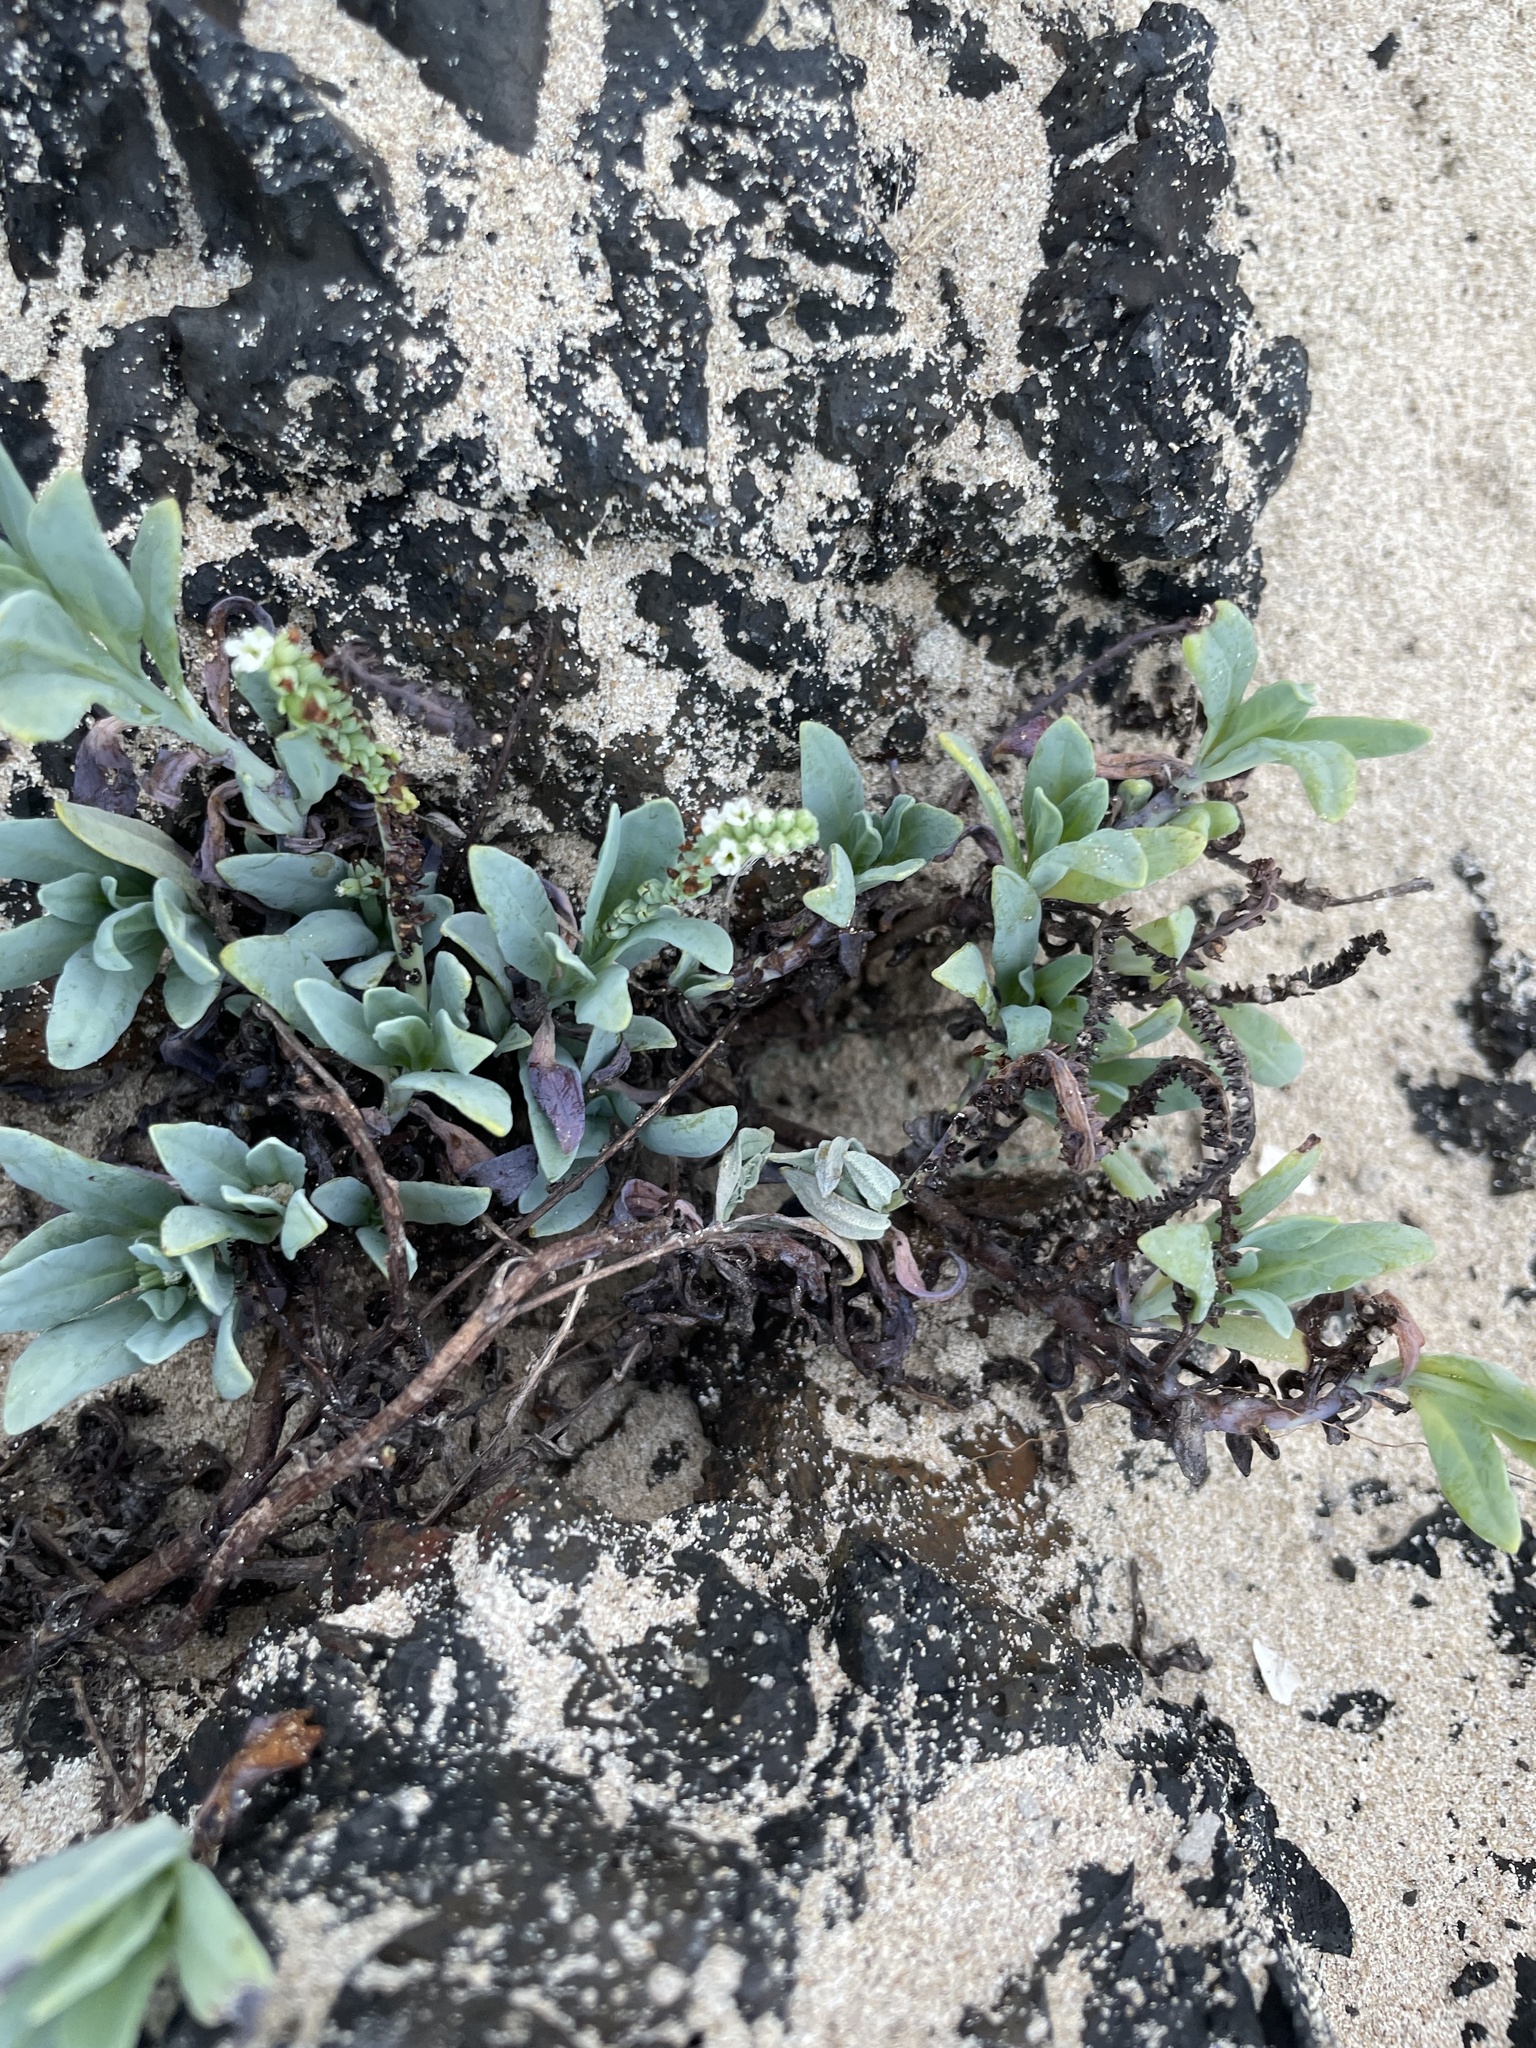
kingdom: Plantae
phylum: Tracheophyta
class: Magnoliopsida
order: Boraginales
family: Heliotropiaceae
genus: Heliotropium
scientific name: Heliotropium curassavicum
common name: Seaside heliotrope
